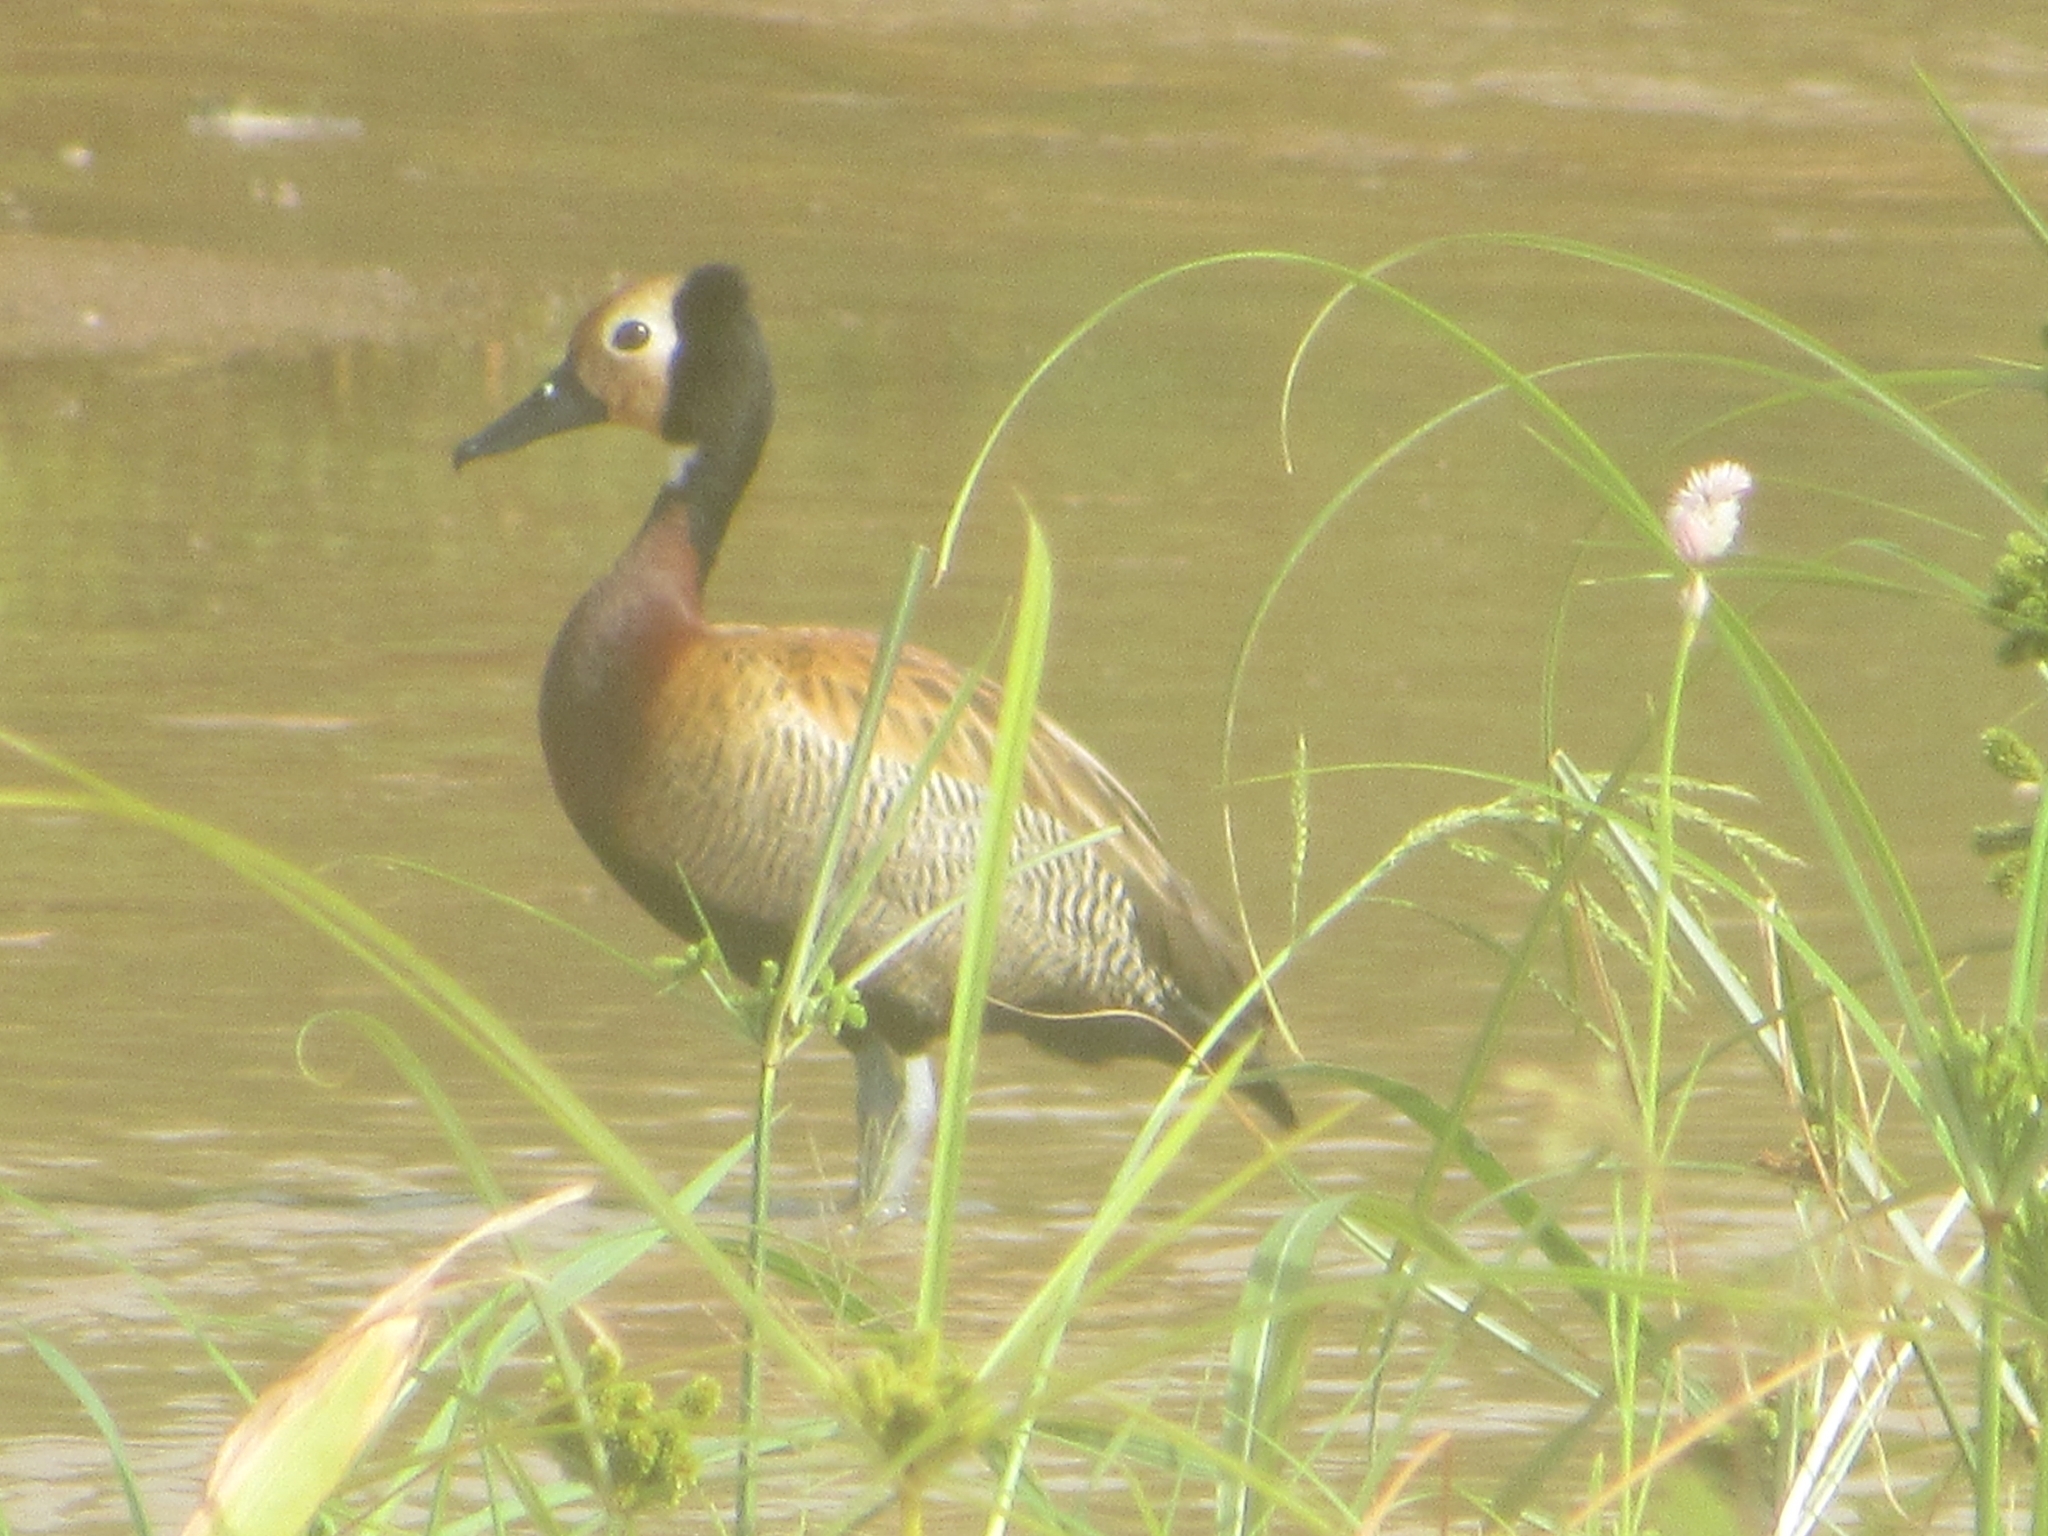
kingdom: Animalia
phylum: Chordata
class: Aves
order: Anseriformes
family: Anatidae
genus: Dendrocygna
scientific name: Dendrocygna viduata
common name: White-faced whistling duck
